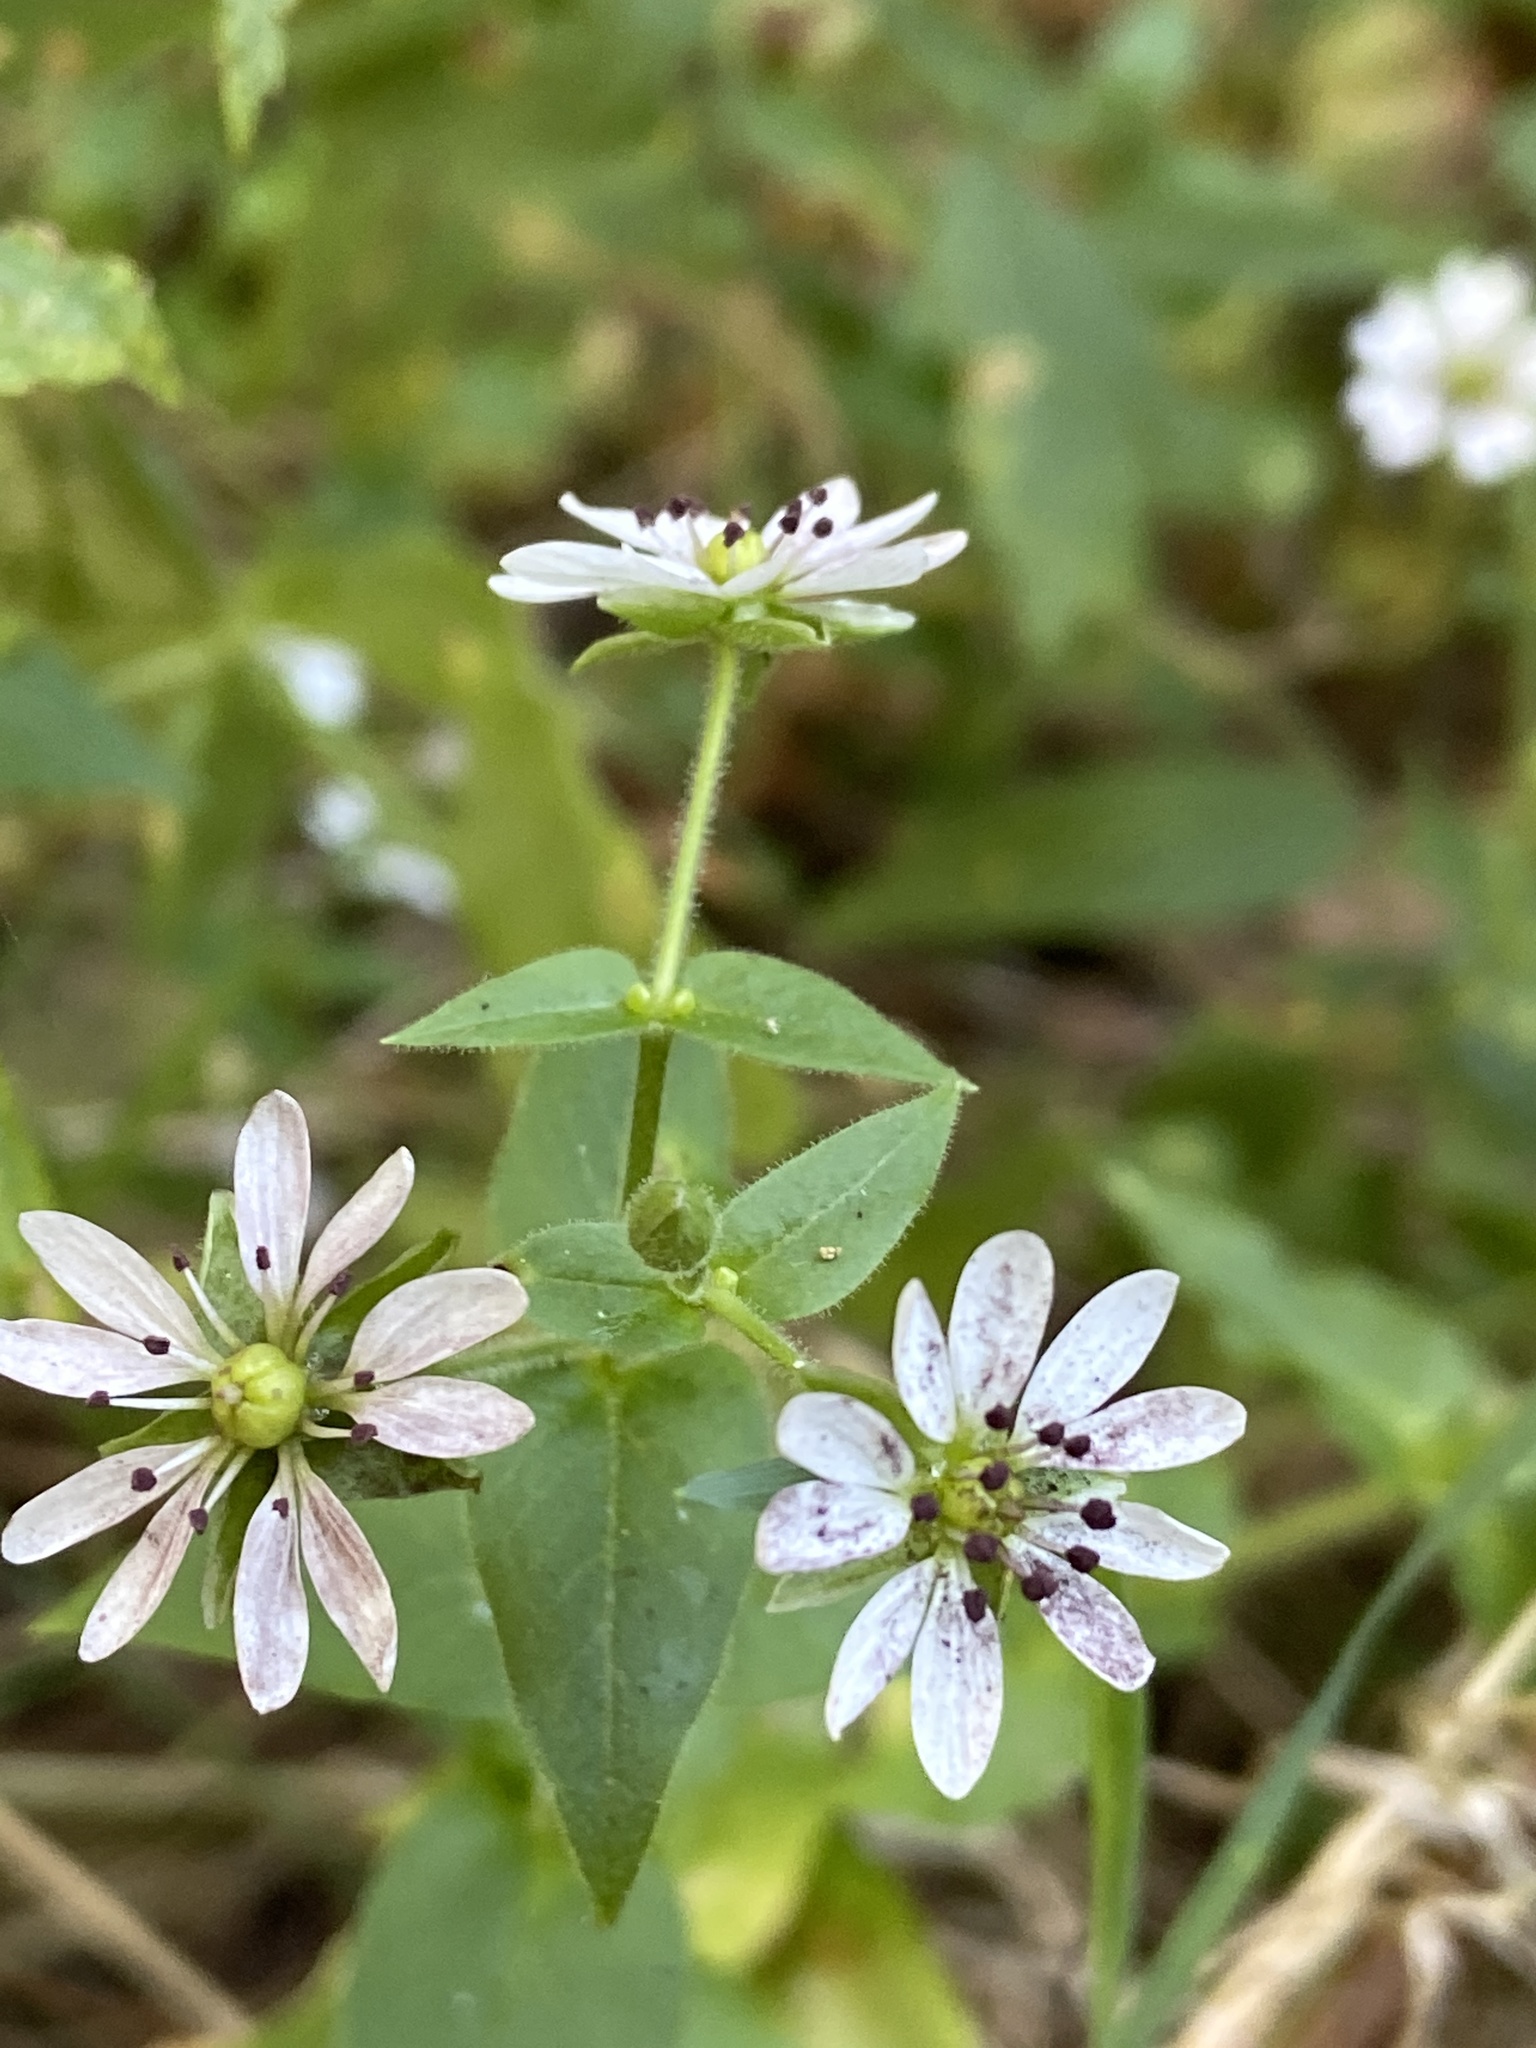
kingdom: Plantae
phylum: Tracheophyta
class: Magnoliopsida
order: Caryophyllales
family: Caryophyllaceae
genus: Stellaria
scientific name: Stellaria aquatica
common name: Water chickweed
